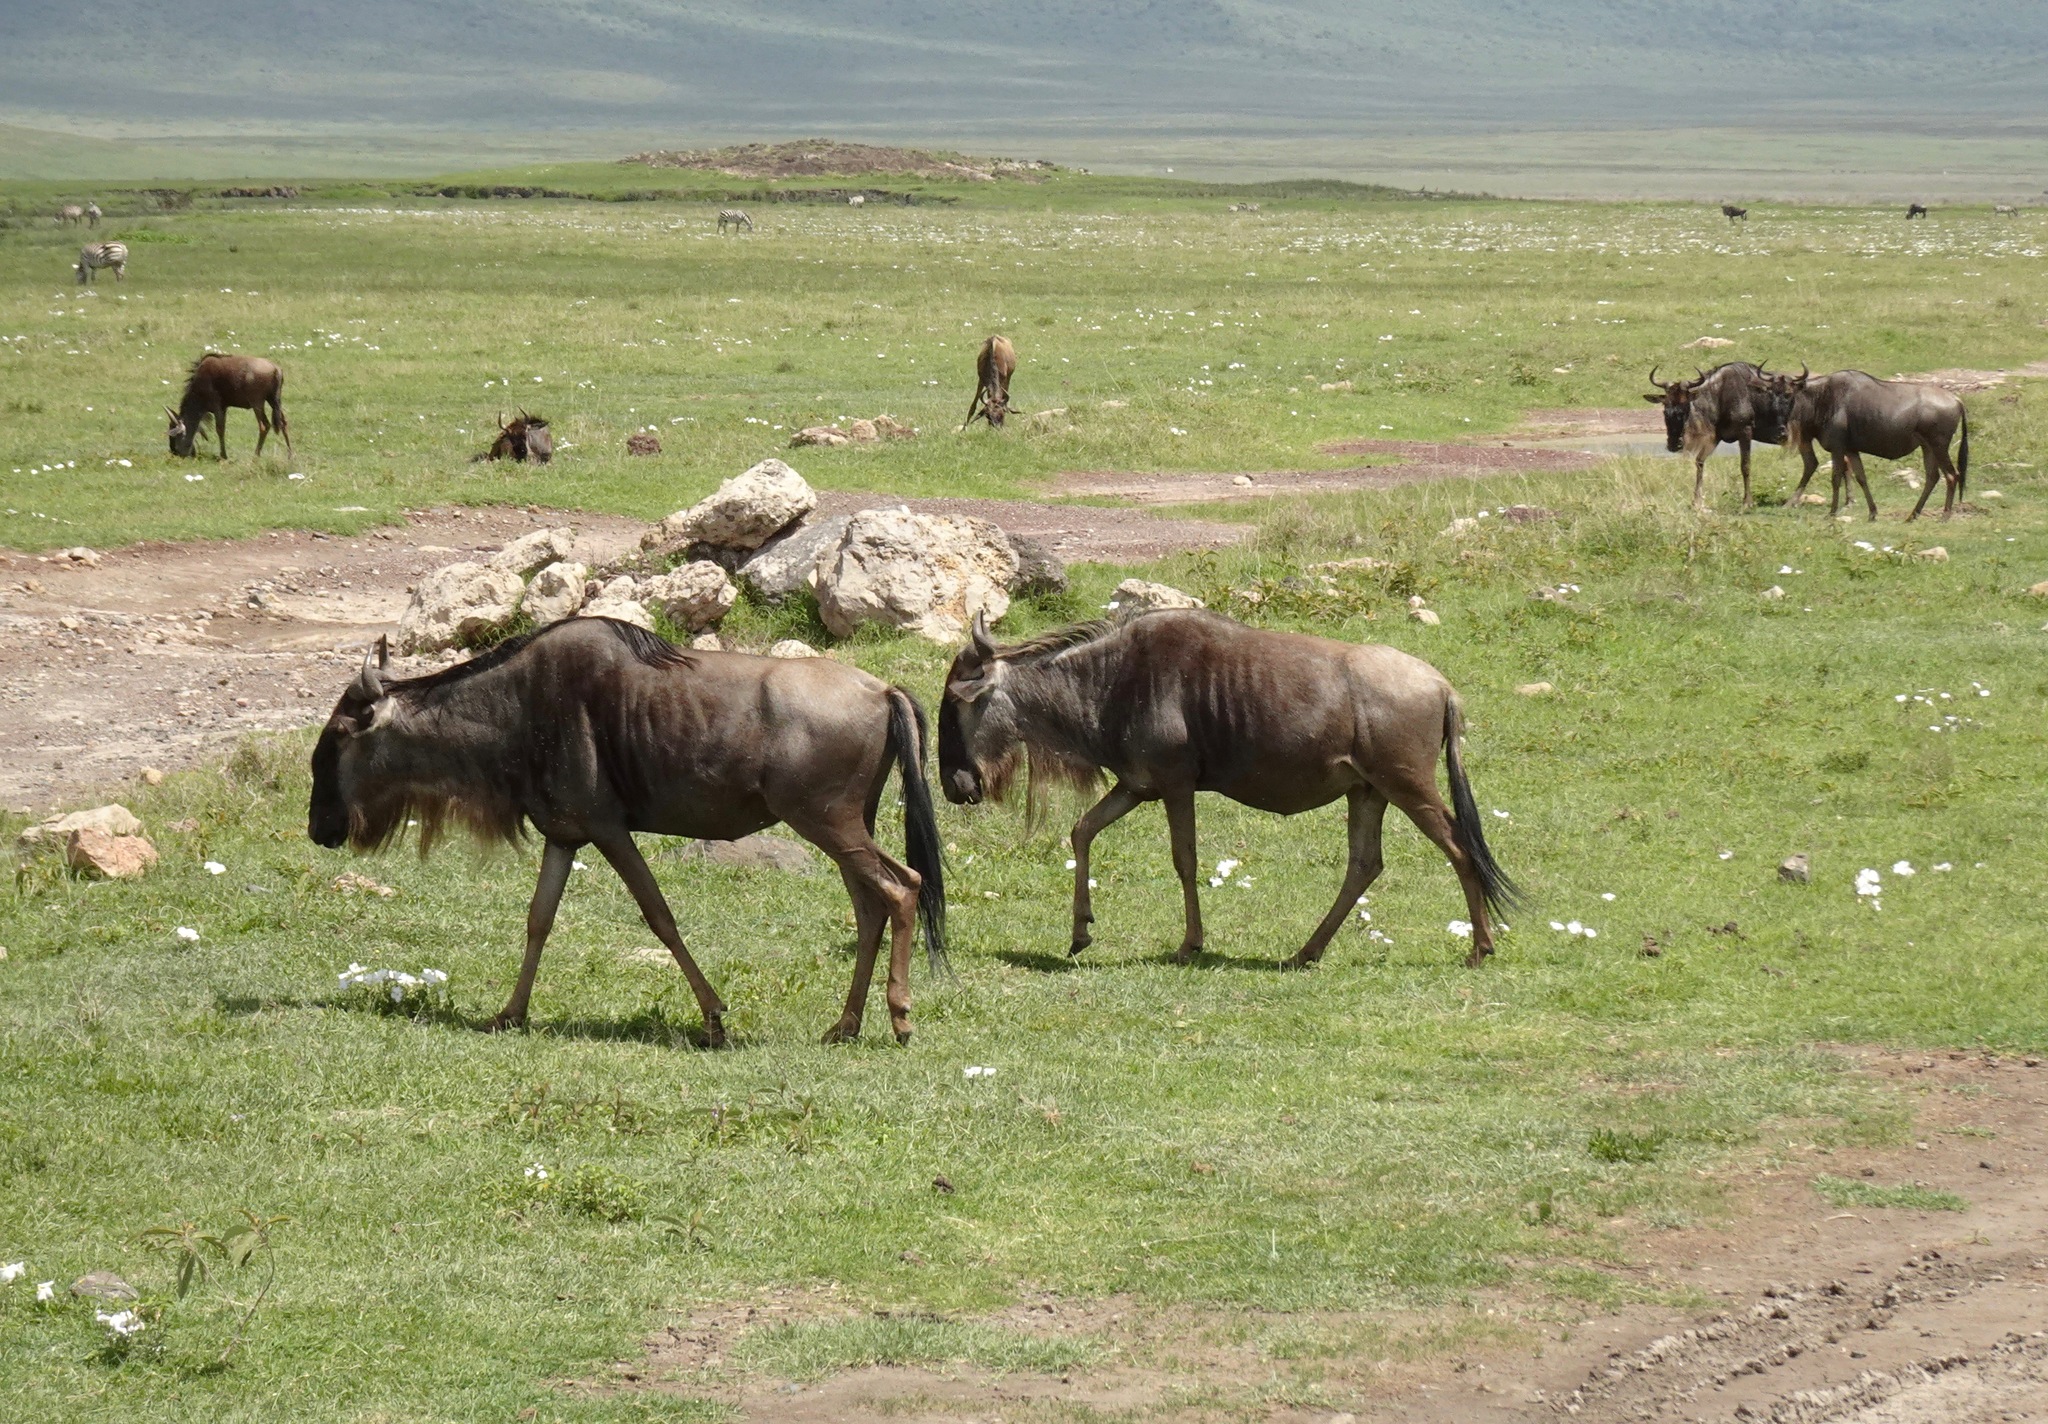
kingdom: Animalia
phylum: Chordata
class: Mammalia
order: Artiodactyla
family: Bovidae
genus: Connochaetes
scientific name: Connochaetes taurinus
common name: Blue wildebeest
